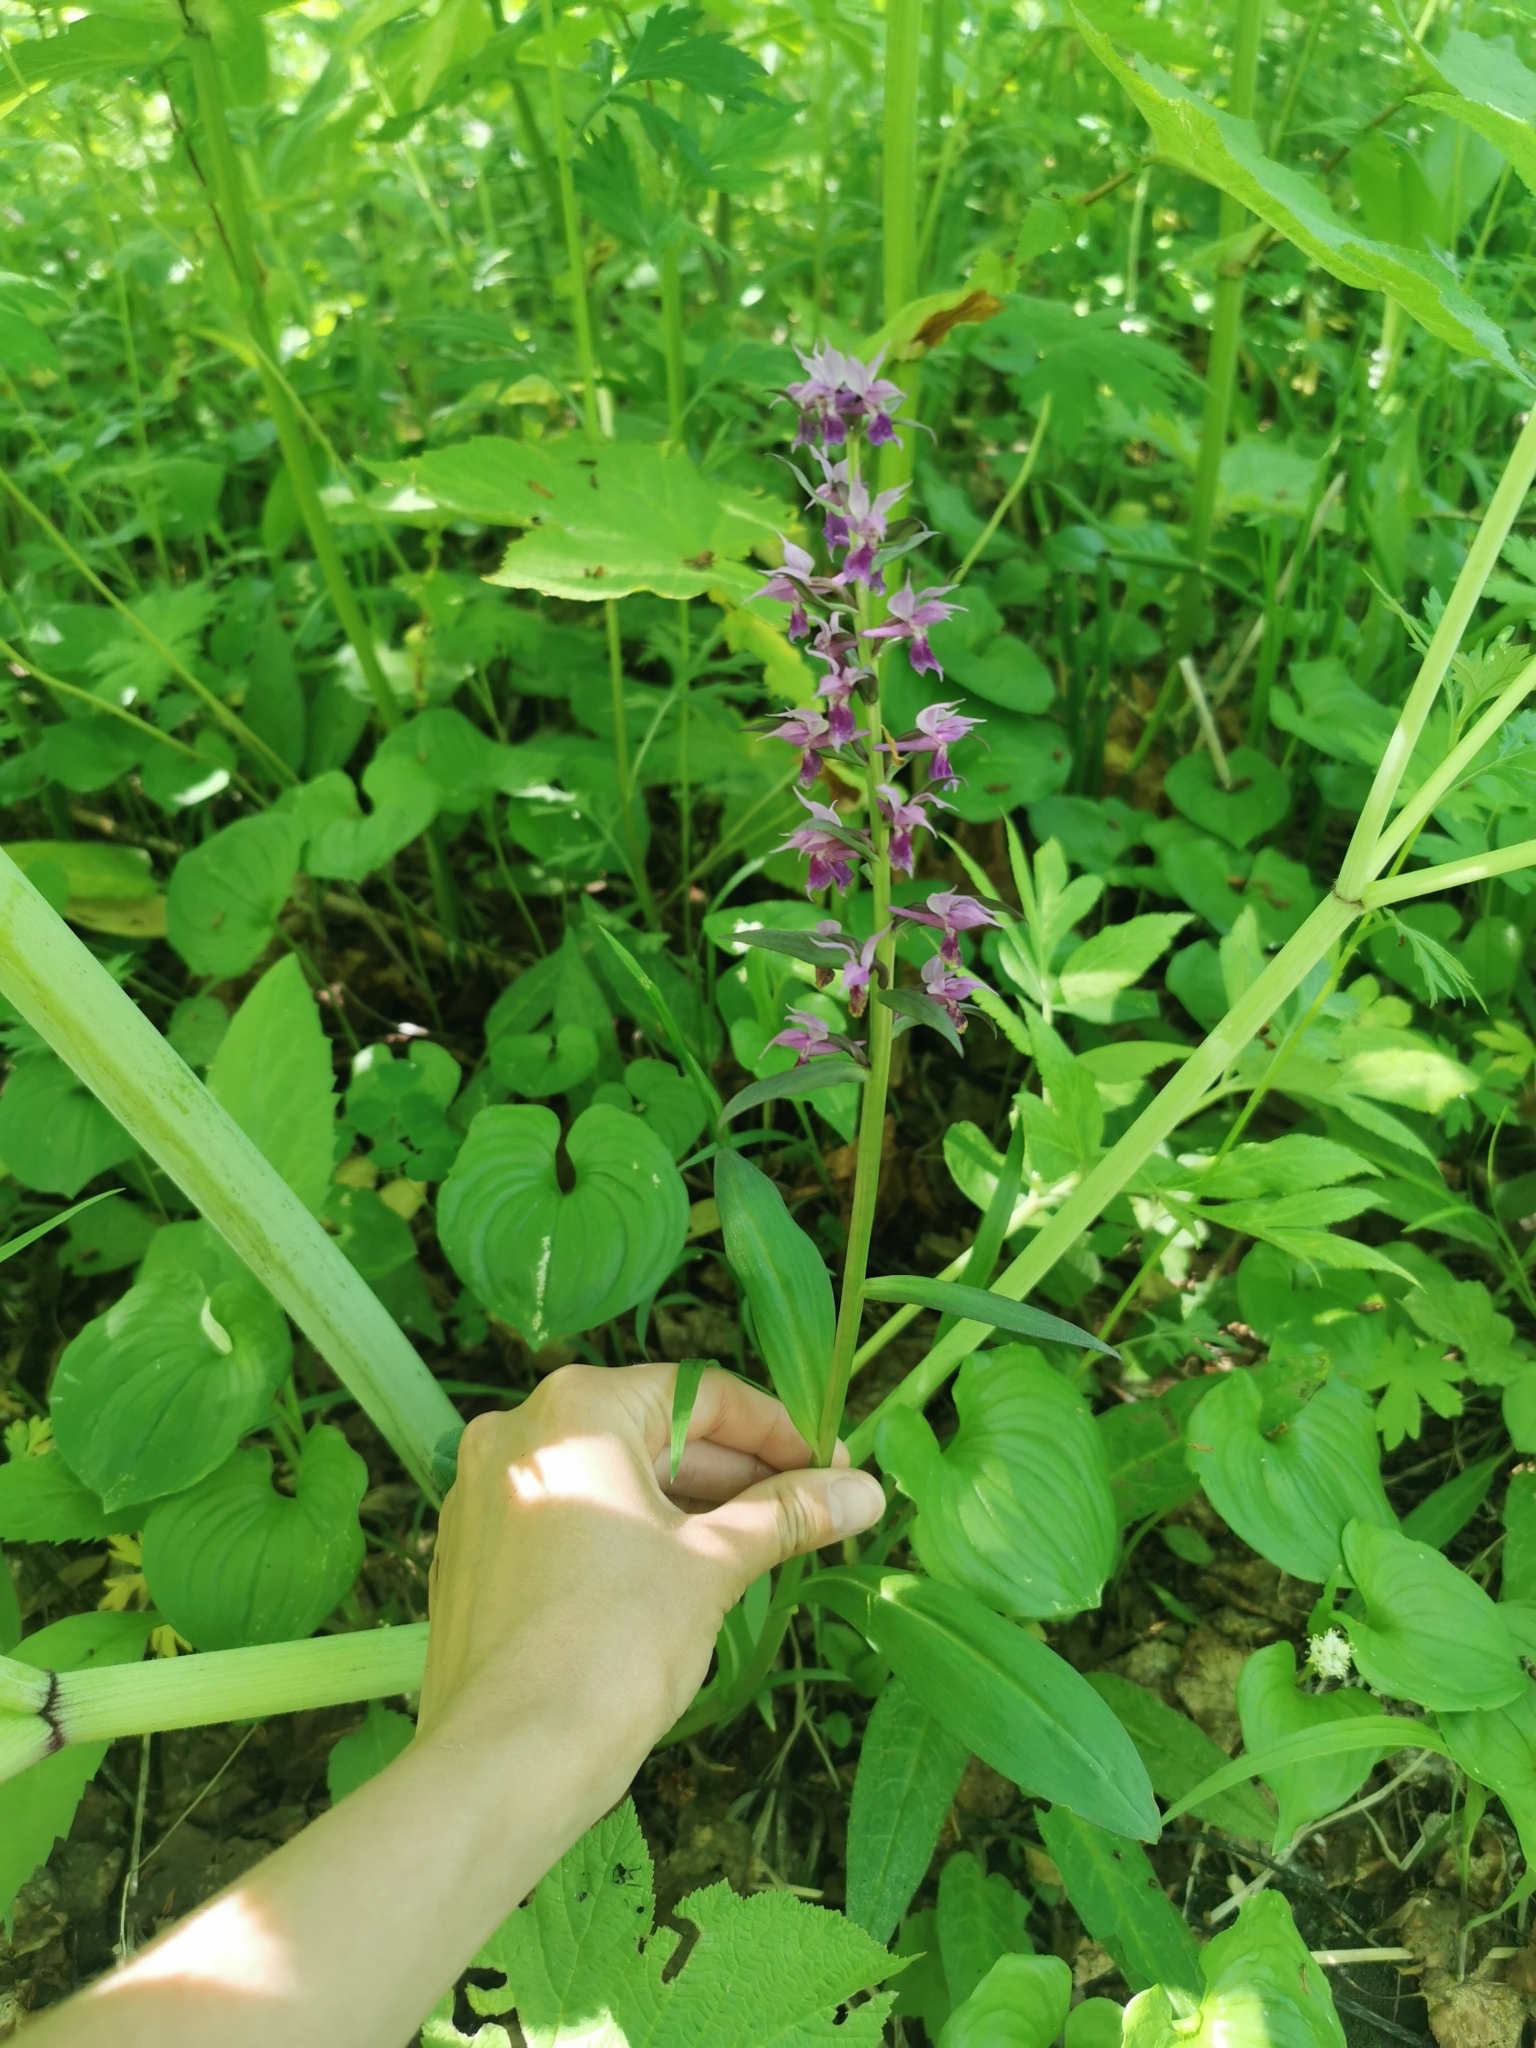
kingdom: Plantae
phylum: Tracheophyta
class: Liliopsida
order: Asparagales
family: Orchidaceae
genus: Dactylorhiza
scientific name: Dactylorhiza aristata
